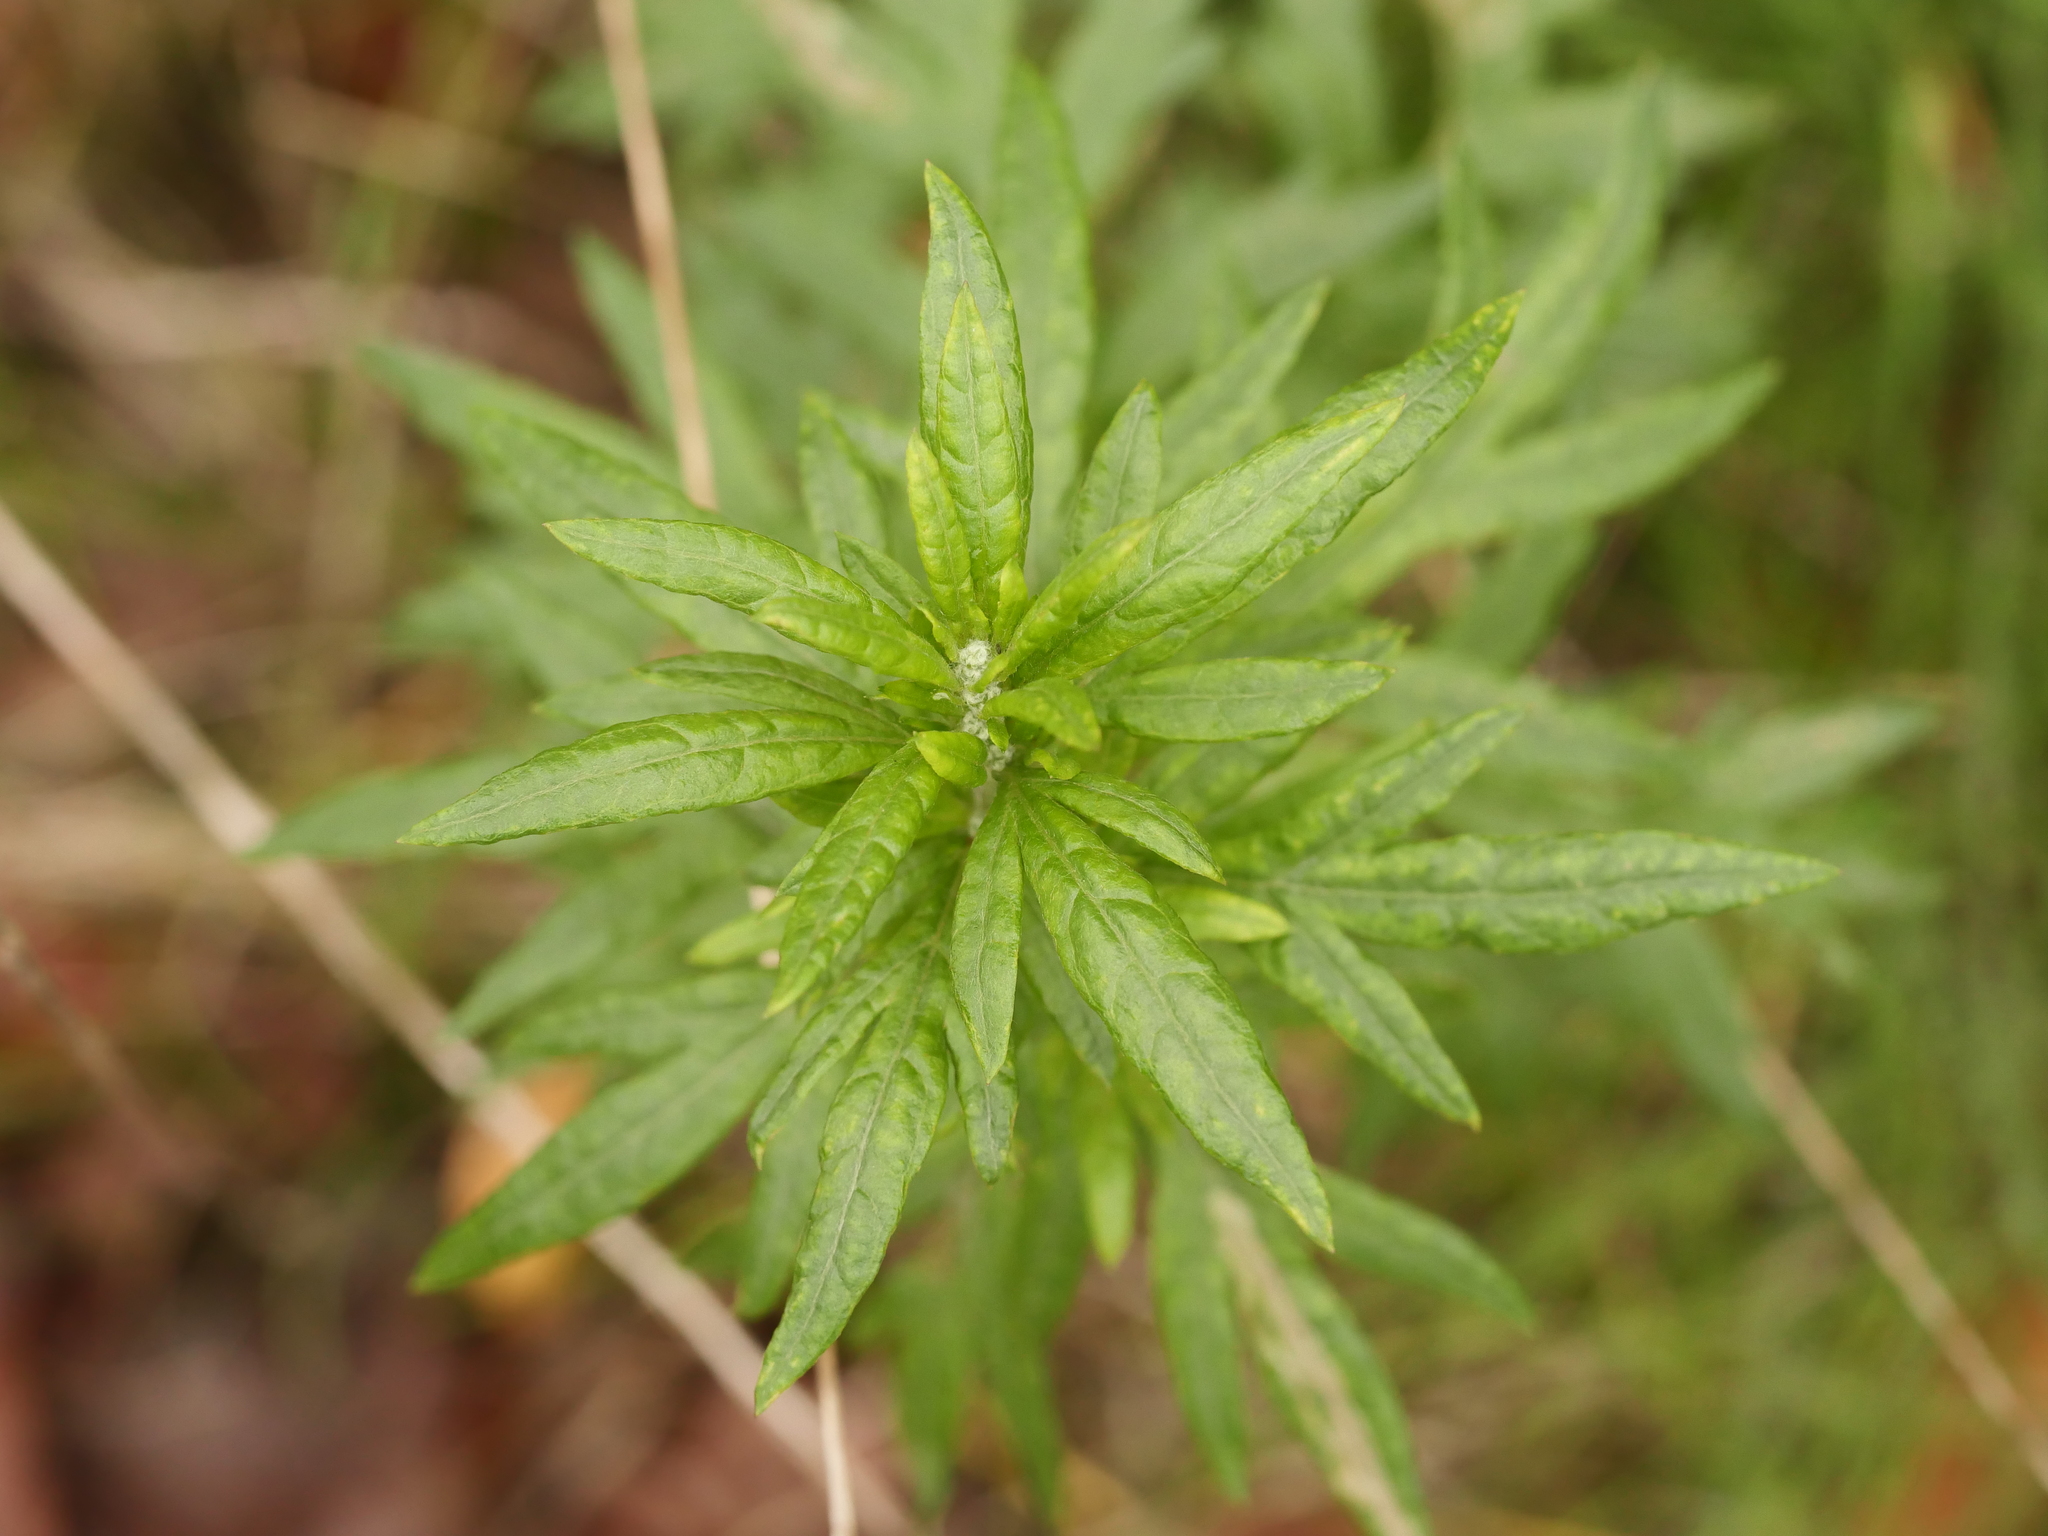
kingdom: Plantae
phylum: Tracheophyta
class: Magnoliopsida
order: Asterales
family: Asteraceae
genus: Artemisia
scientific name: Artemisia vulgaris
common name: Mugwort
